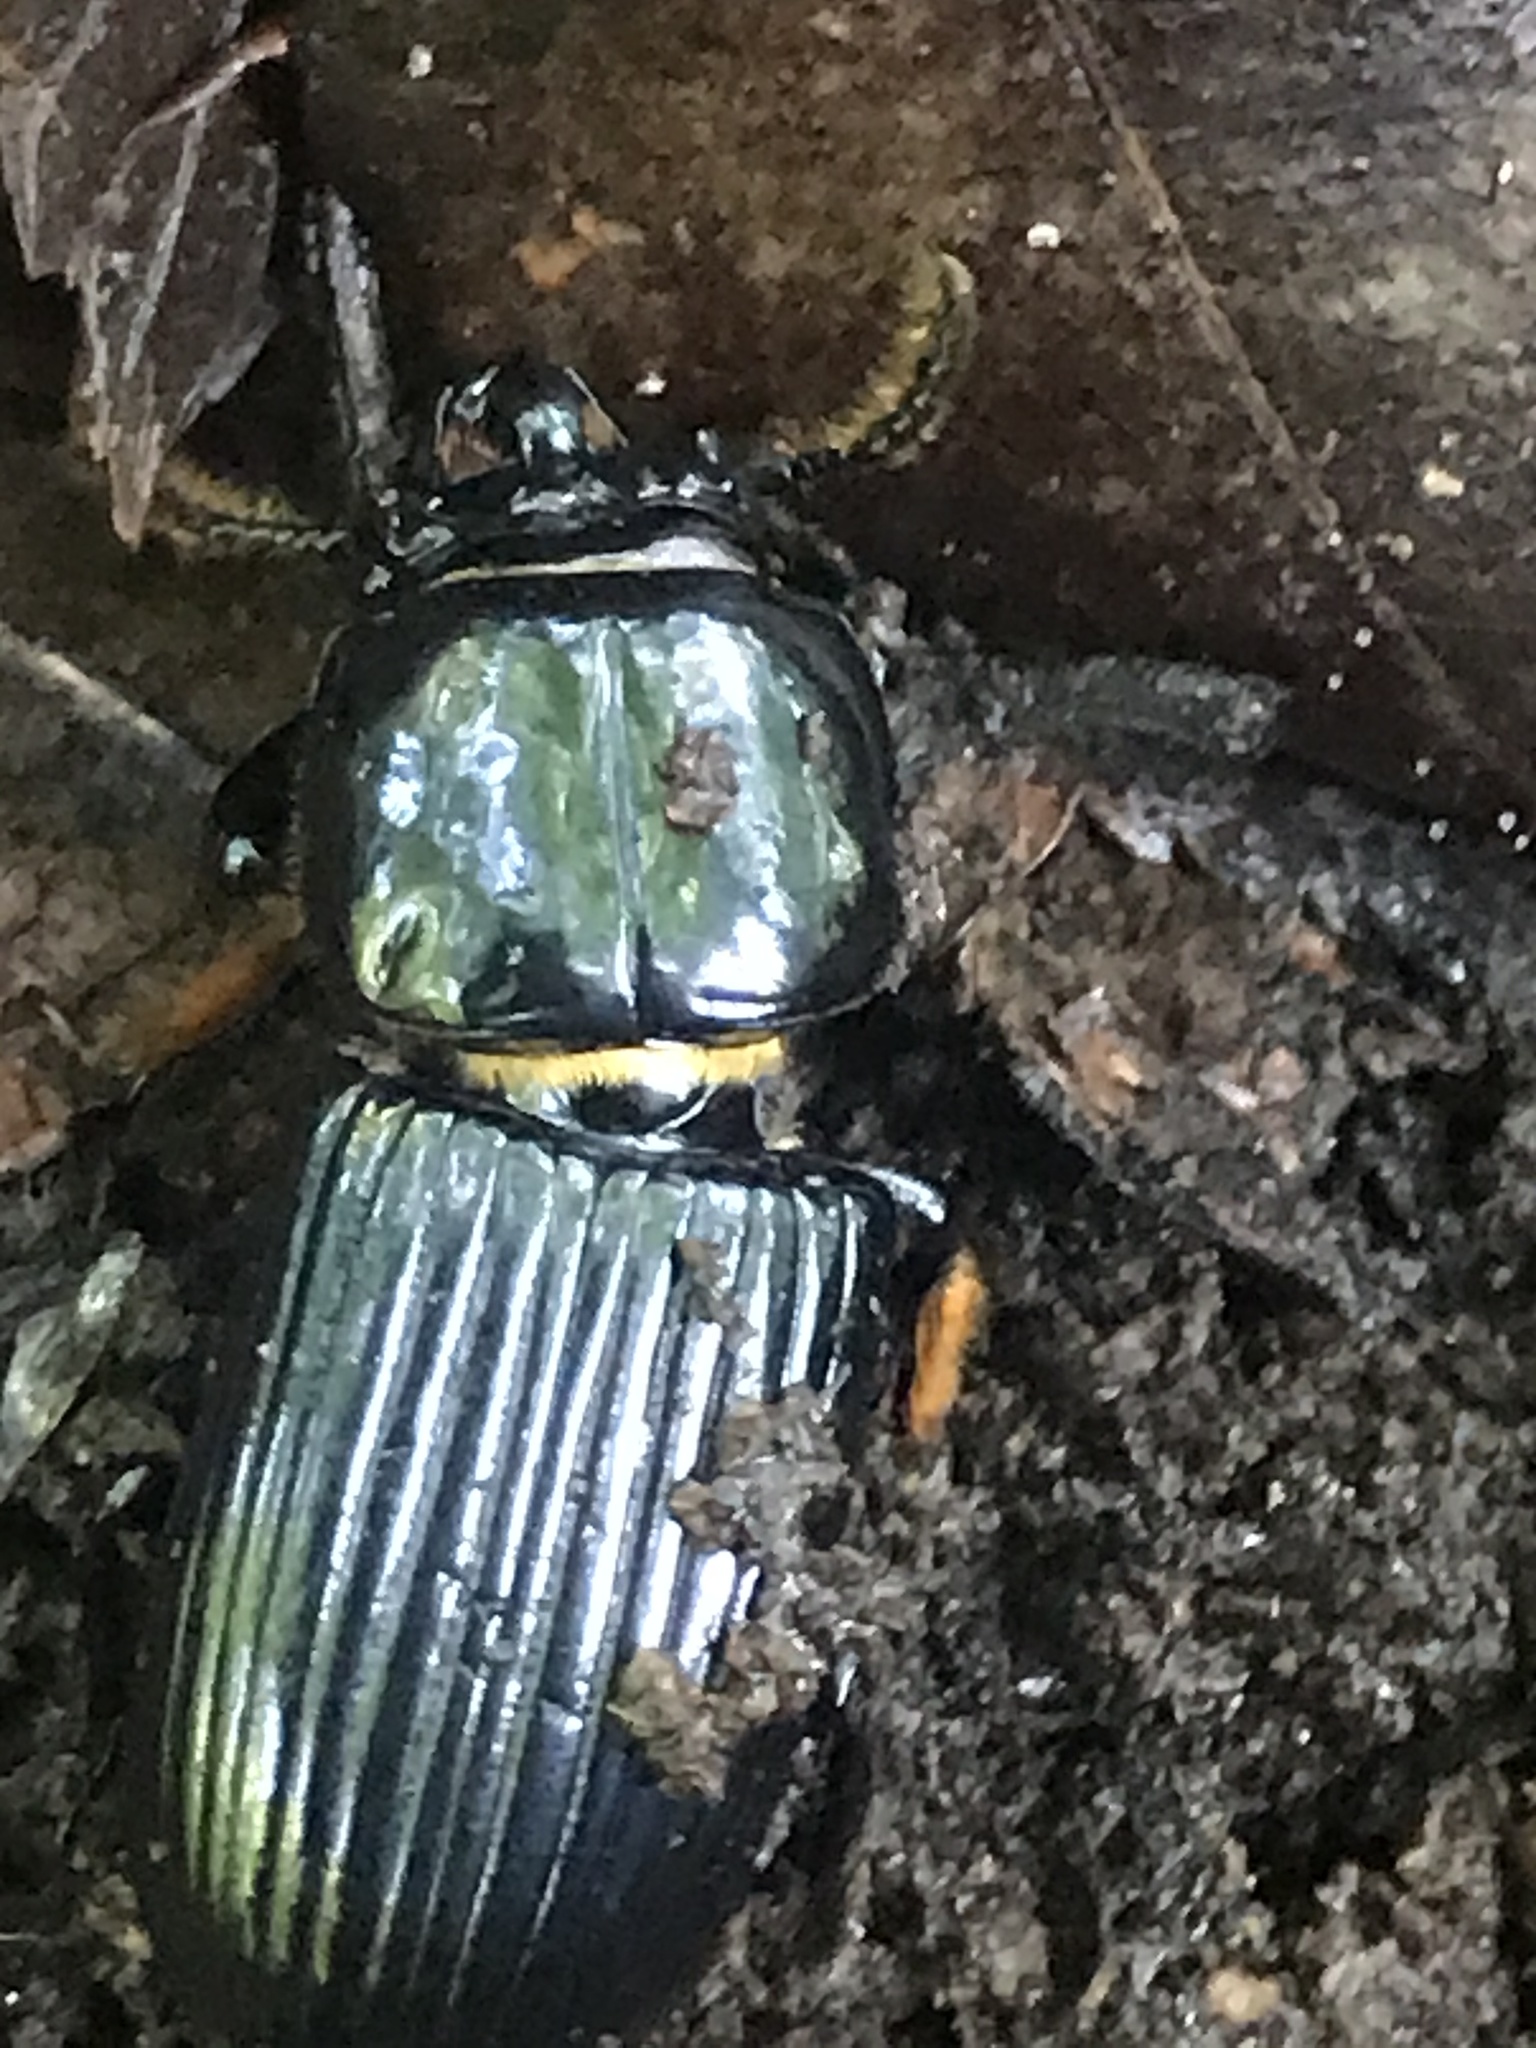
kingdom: Animalia
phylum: Arthropoda
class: Insecta
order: Coleoptera
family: Passalidae
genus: Odontotaenius
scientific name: Odontotaenius disjunctus
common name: Patent leather beetle
